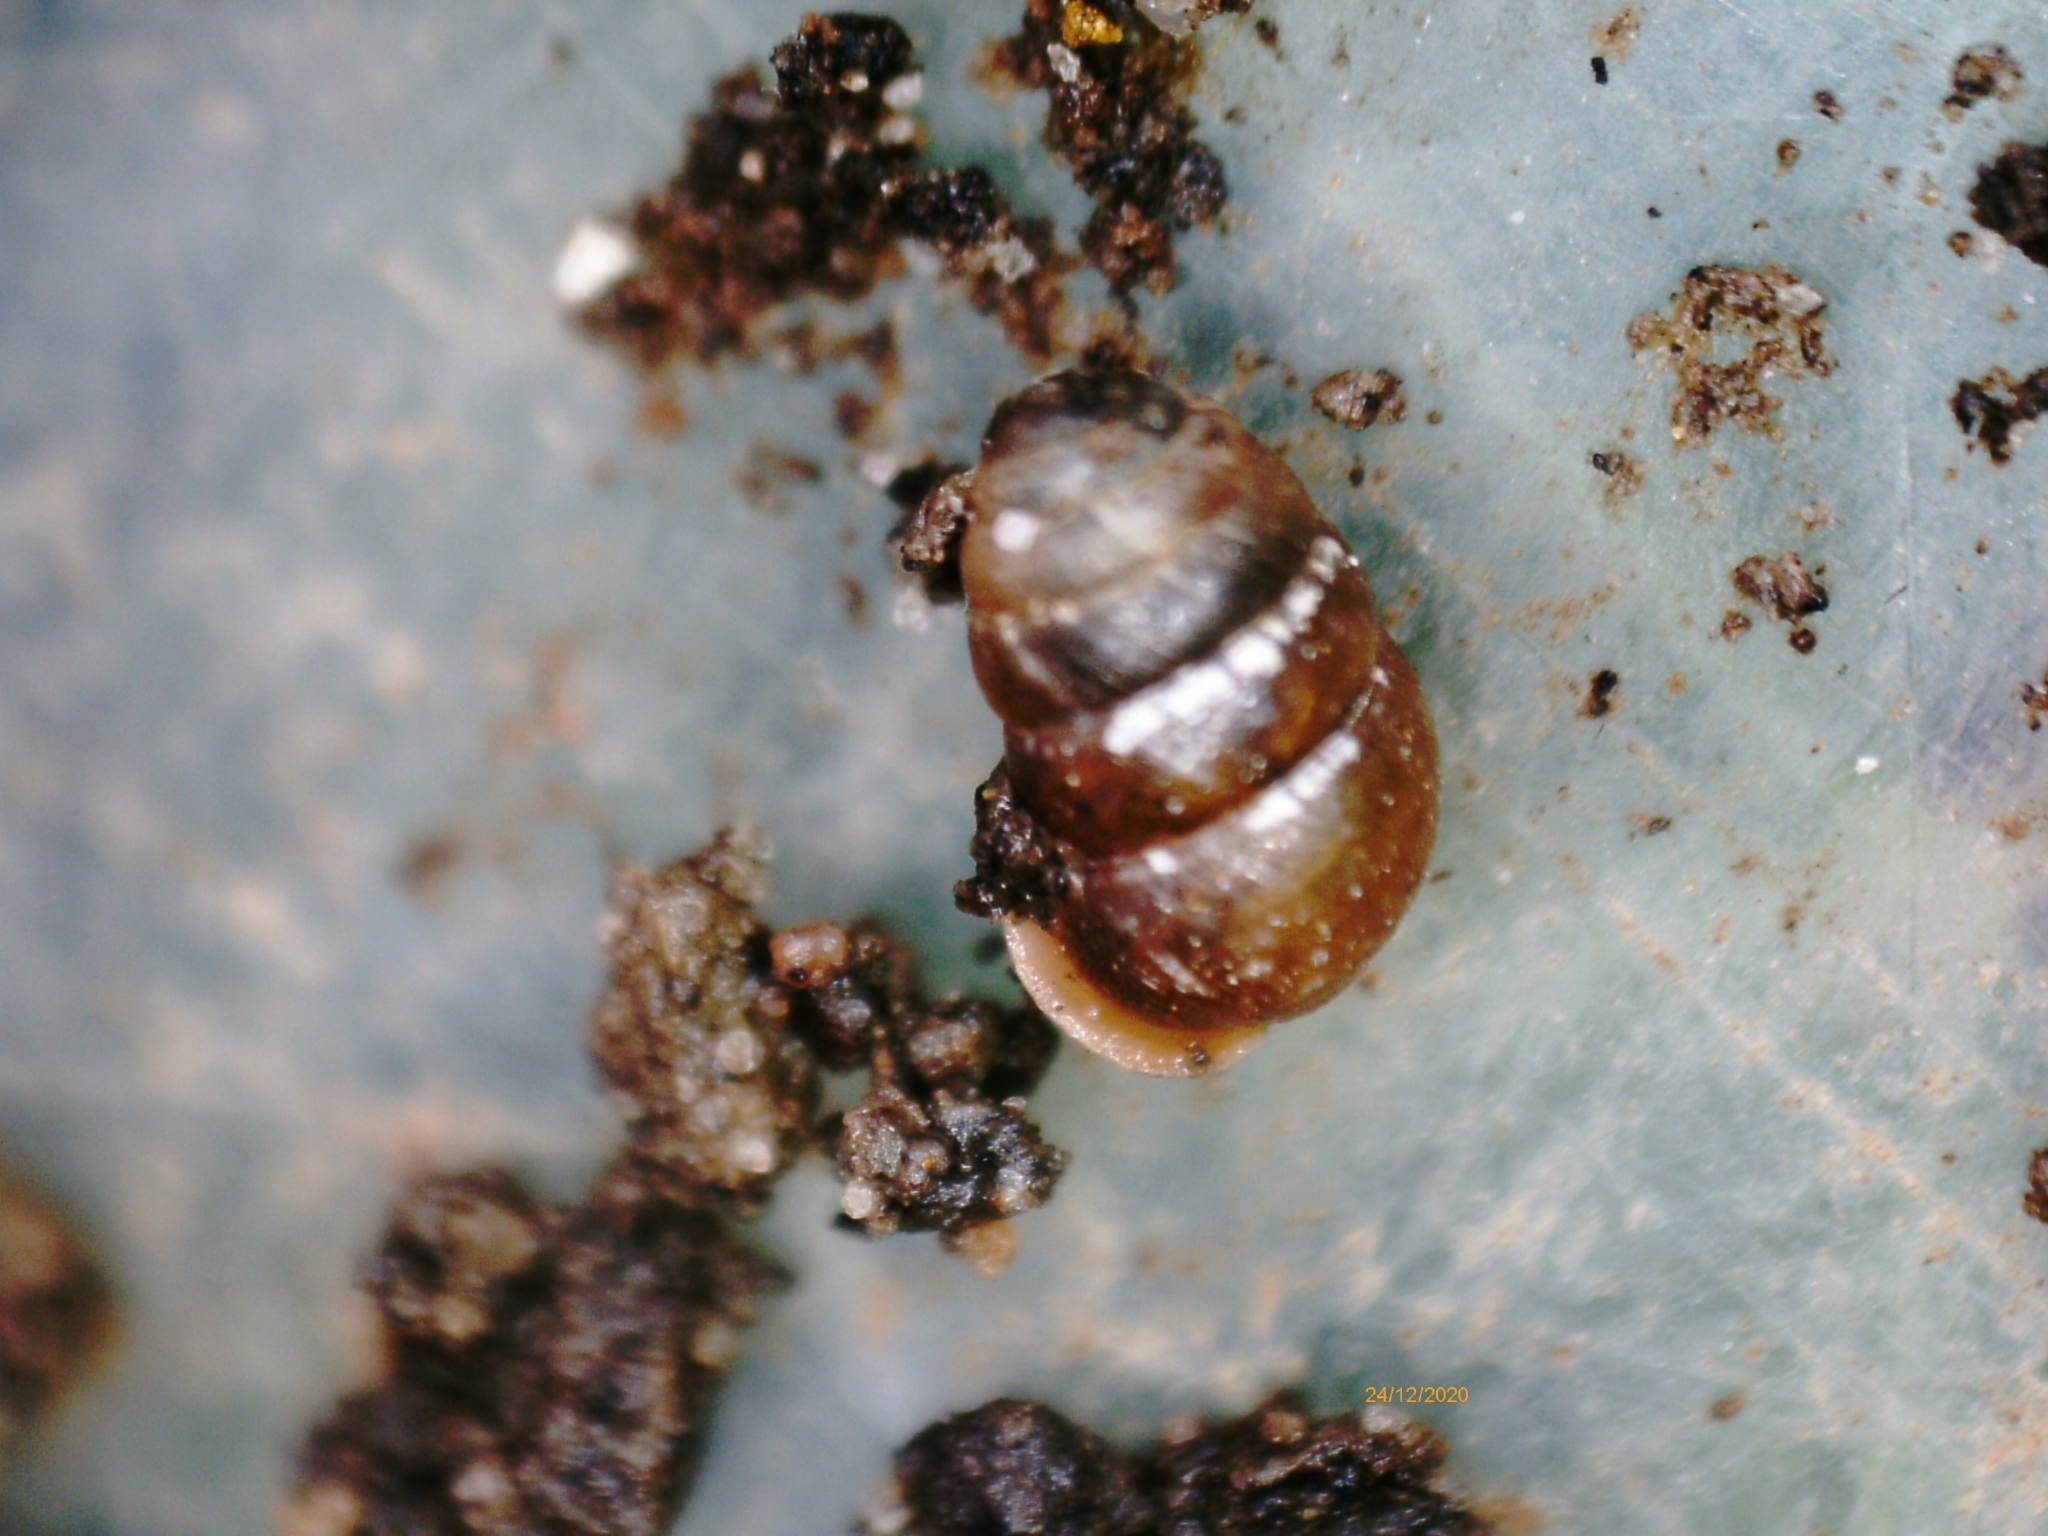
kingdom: Animalia
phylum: Mollusca
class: Gastropoda
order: Stylommatophora
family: Lauriidae
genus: Lauria
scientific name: Lauria cylindracea
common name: Common chrysalis snail
